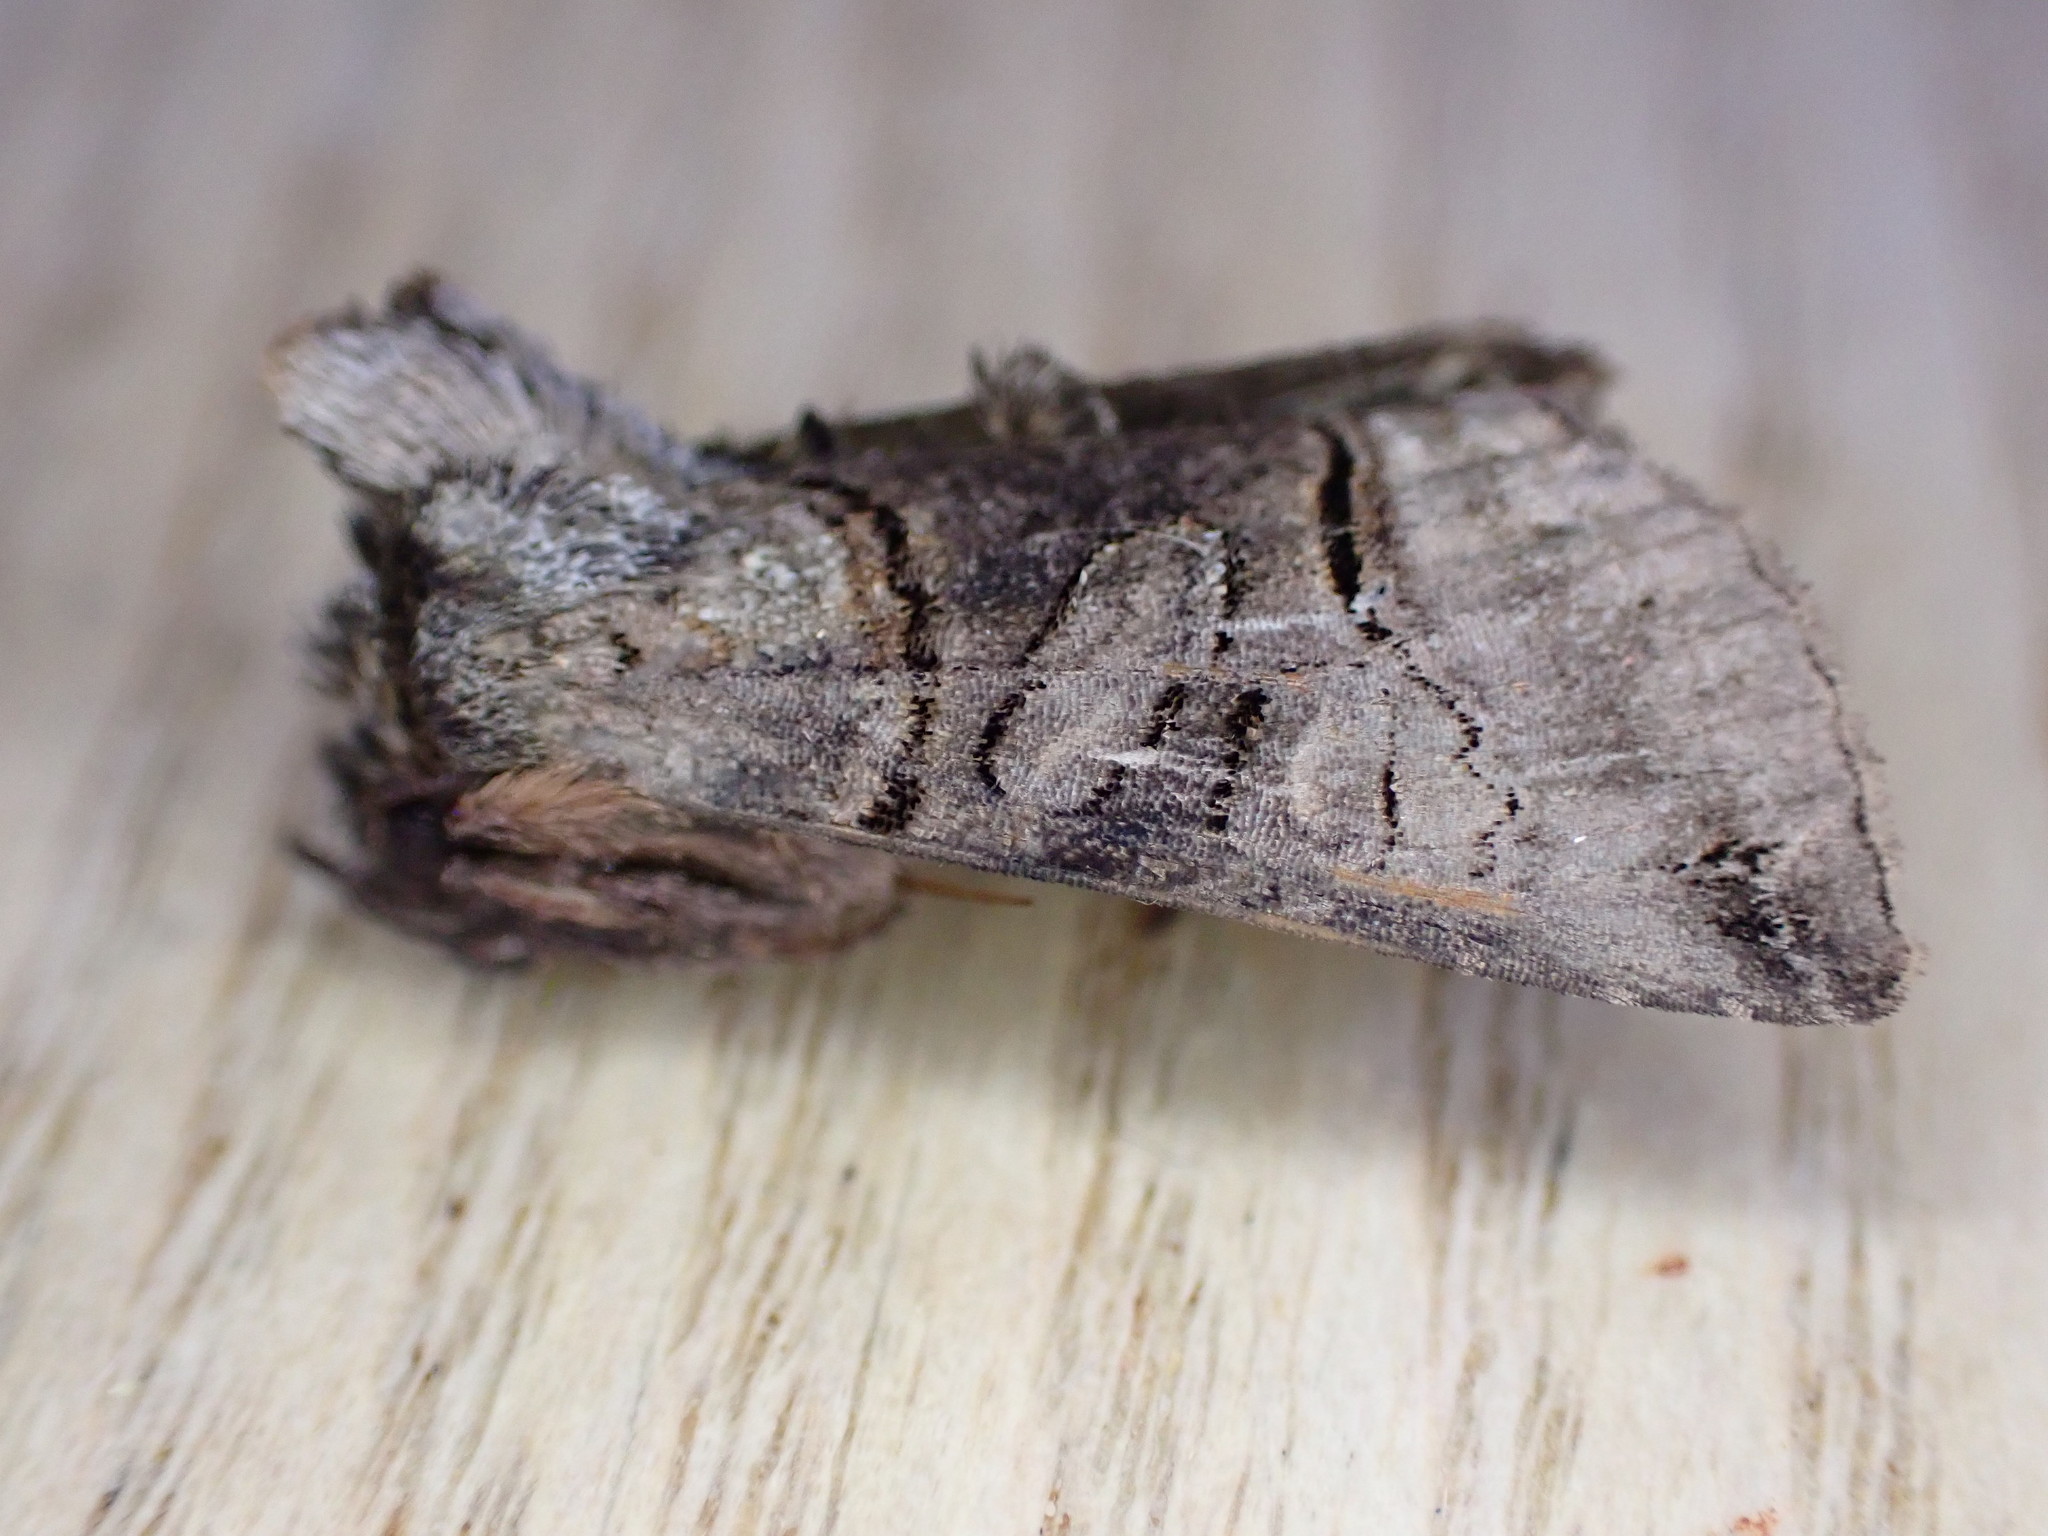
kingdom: Animalia
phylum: Arthropoda
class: Insecta
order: Lepidoptera
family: Noctuidae
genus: Abrostola
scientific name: Abrostola tripartita
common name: Spectacle
